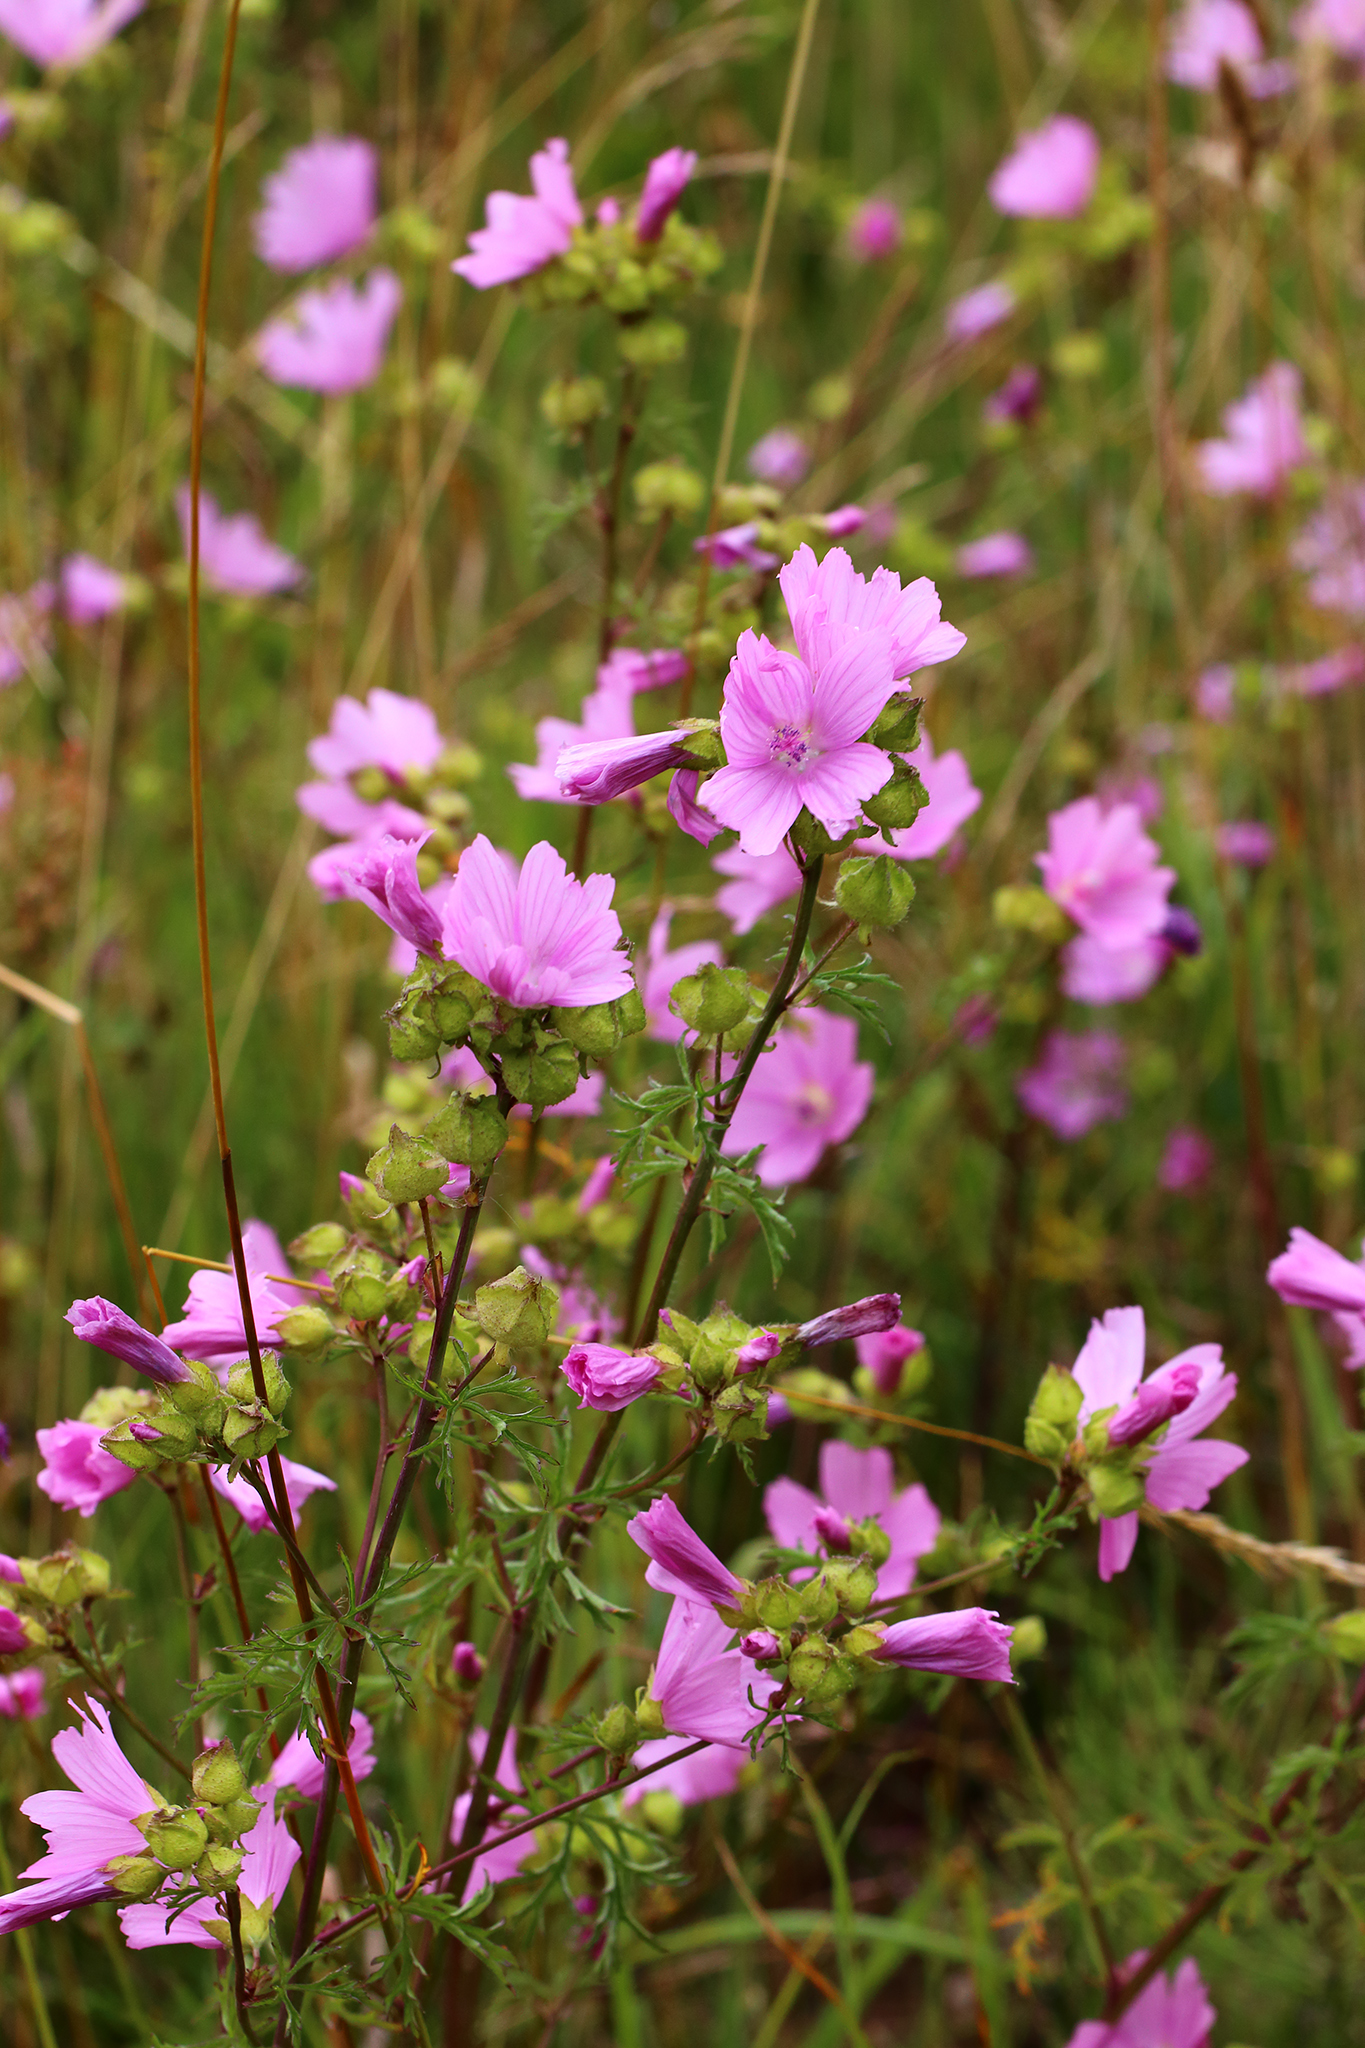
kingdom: Plantae
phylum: Tracheophyta
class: Magnoliopsida
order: Malvales
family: Malvaceae
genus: Malva
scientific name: Malva moschata
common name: Musk mallow
